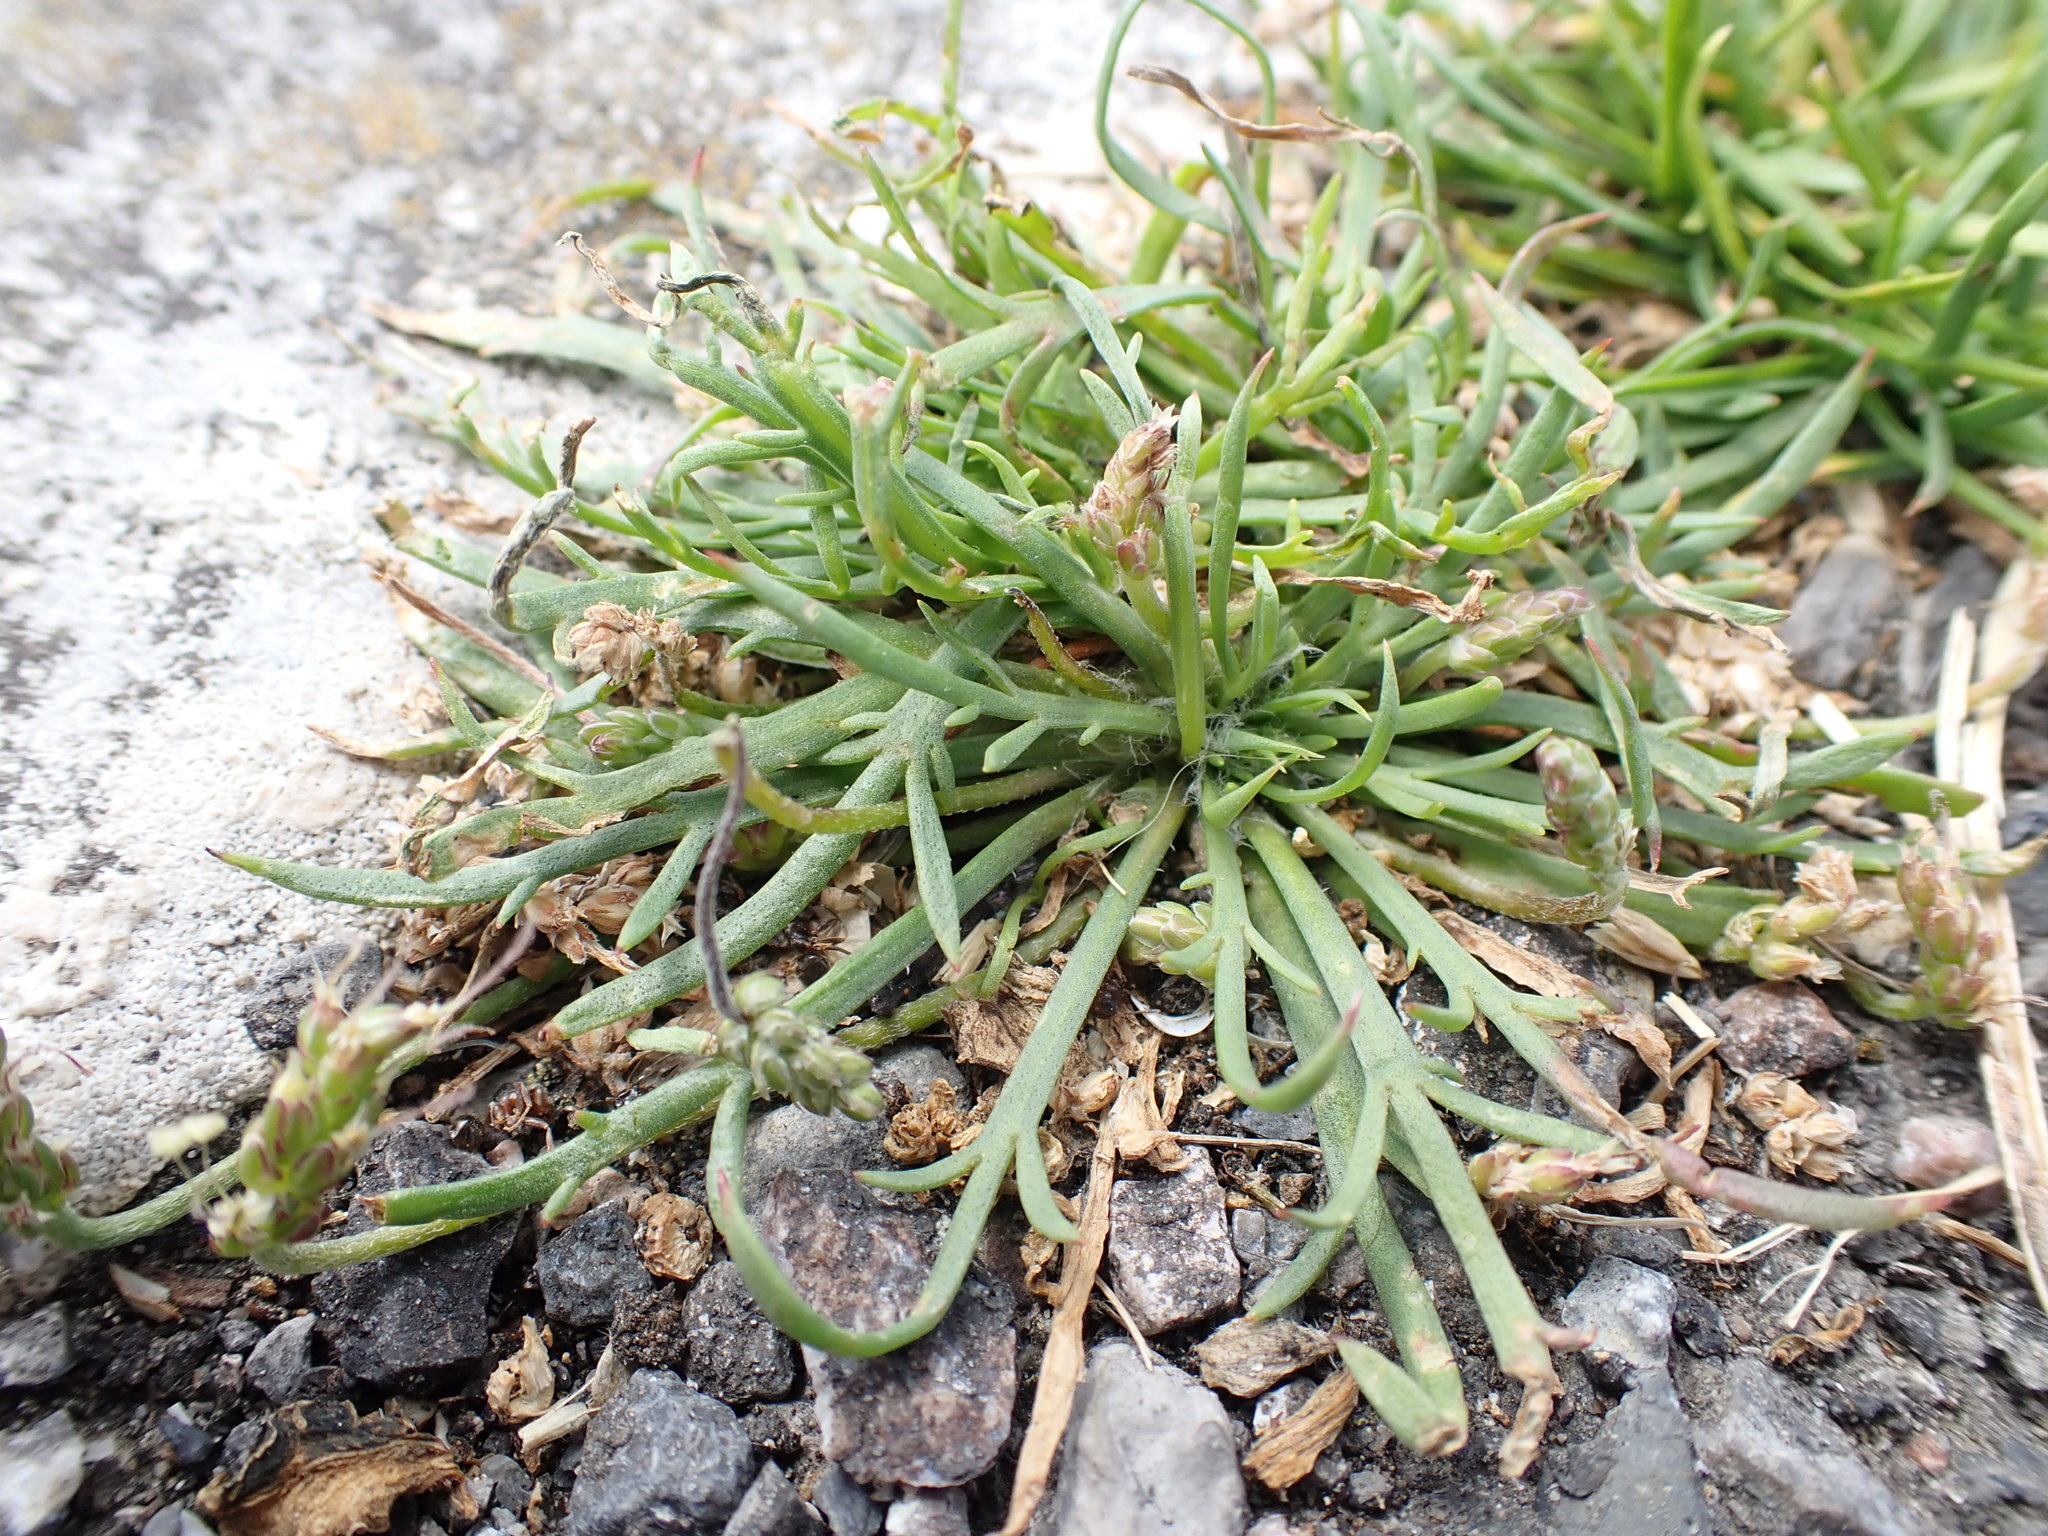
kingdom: Plantae
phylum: Tracheophyta
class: Magnoliopsida
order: Lamiales
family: Plantaginaceae
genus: Plantago
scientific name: Plantago coronopus
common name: Buck's-horn plantain
